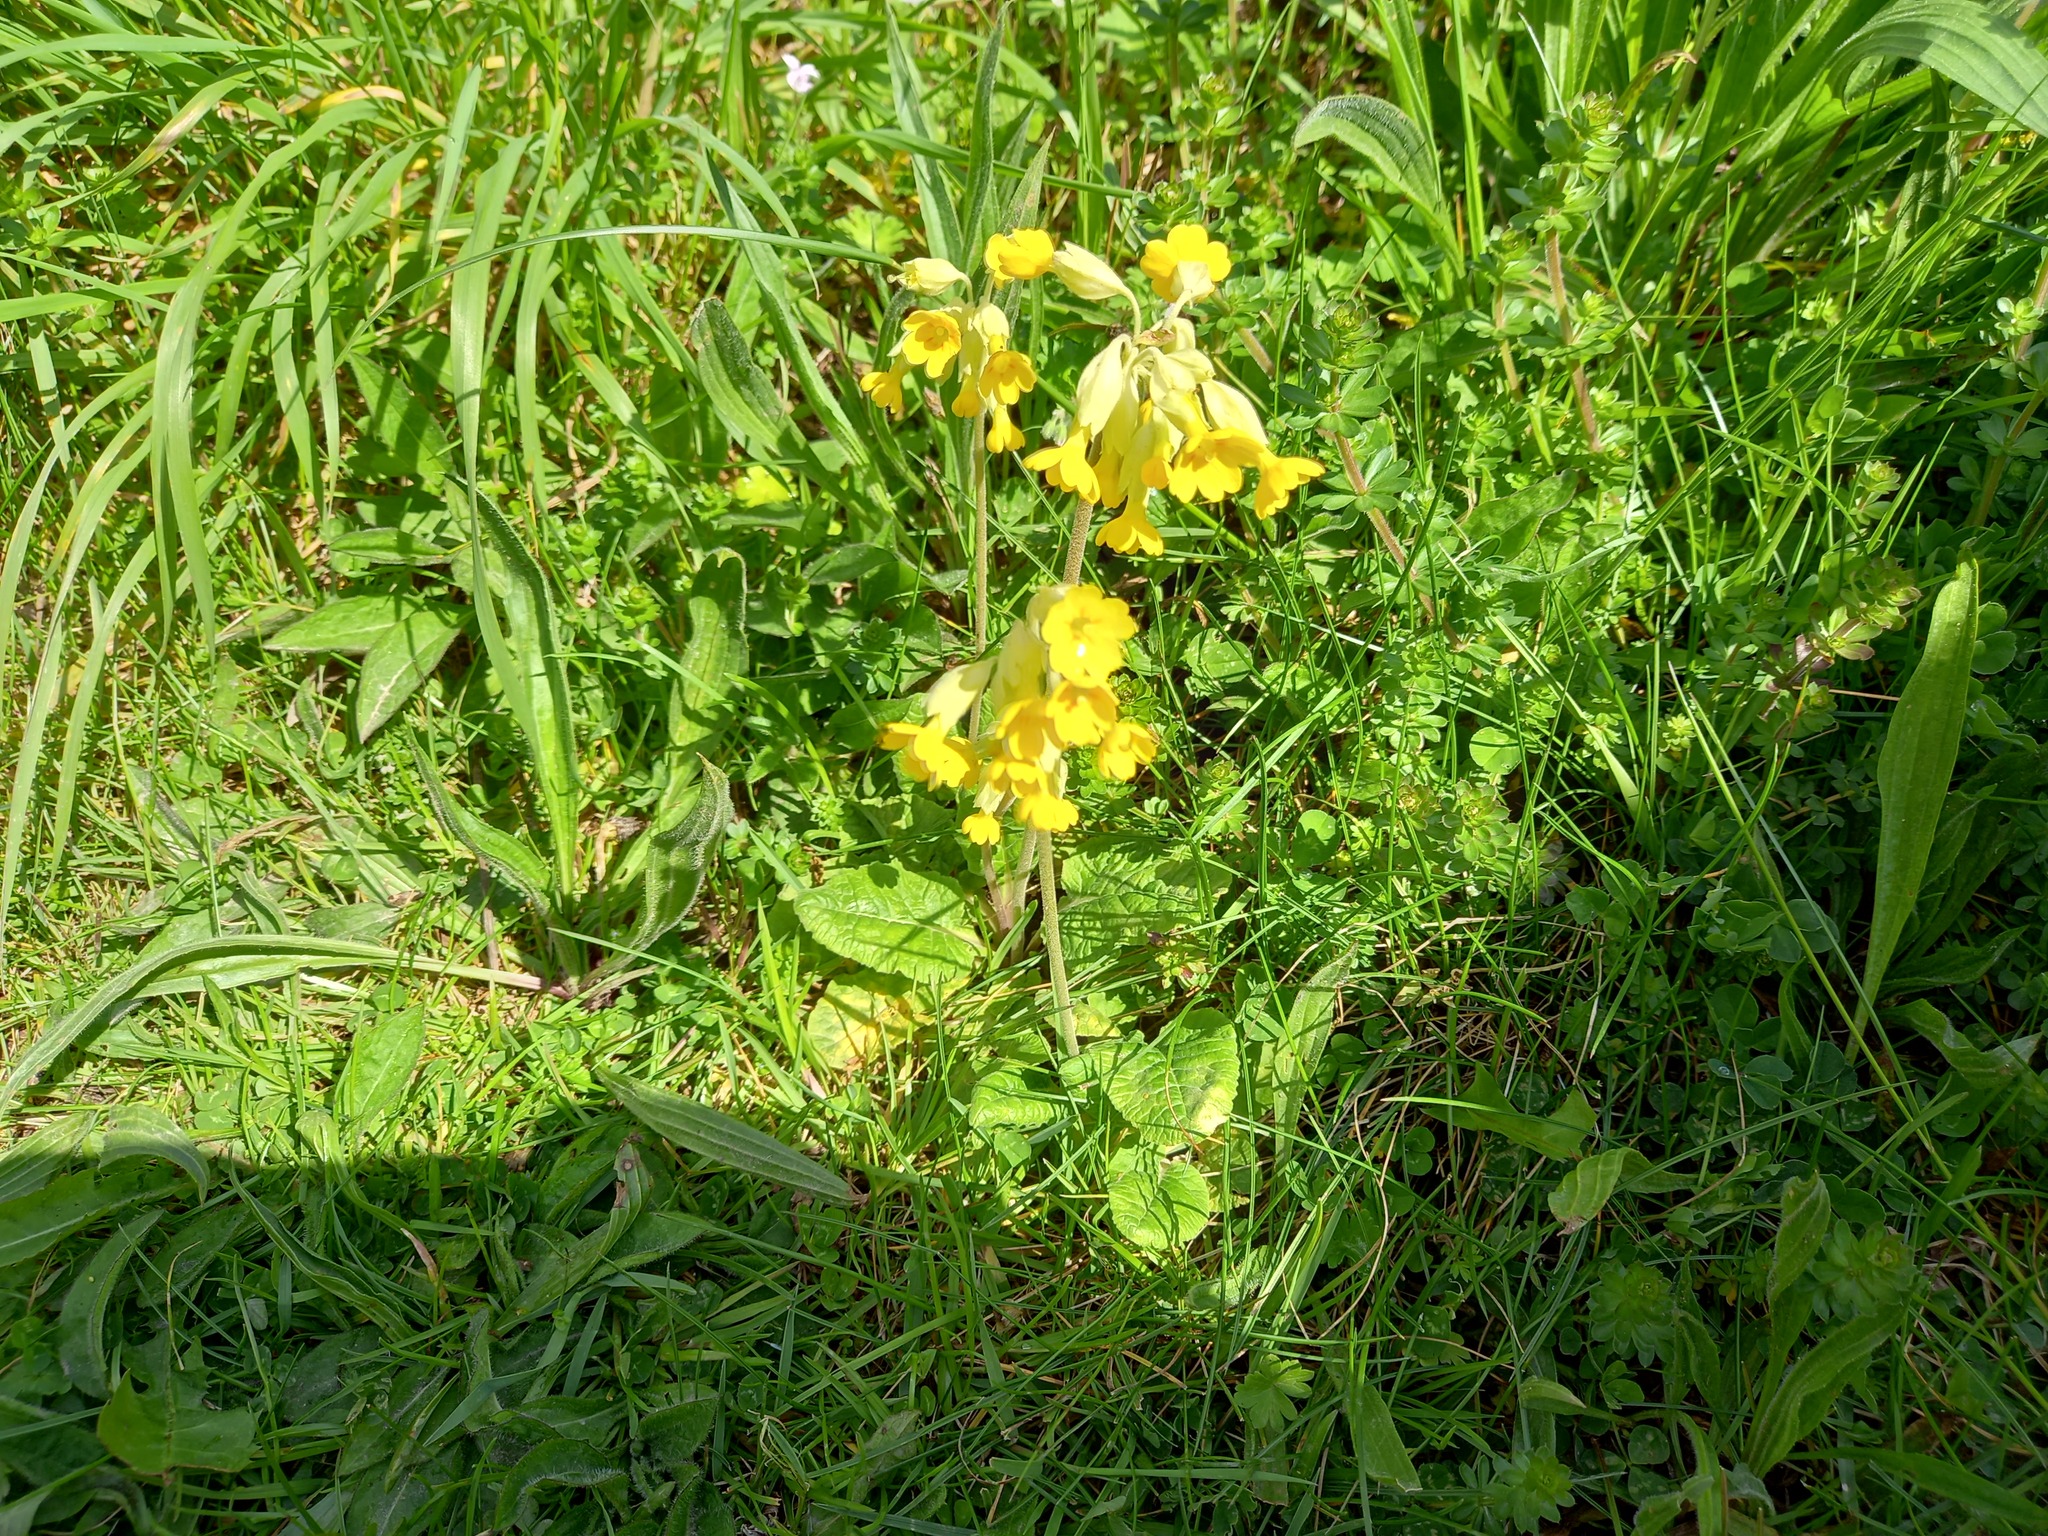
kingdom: Plantae
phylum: Tracheophyta
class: Magnoliopsida
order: Ericales
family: Primulaceae
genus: Primula
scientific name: Primula veris
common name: Cowslip
